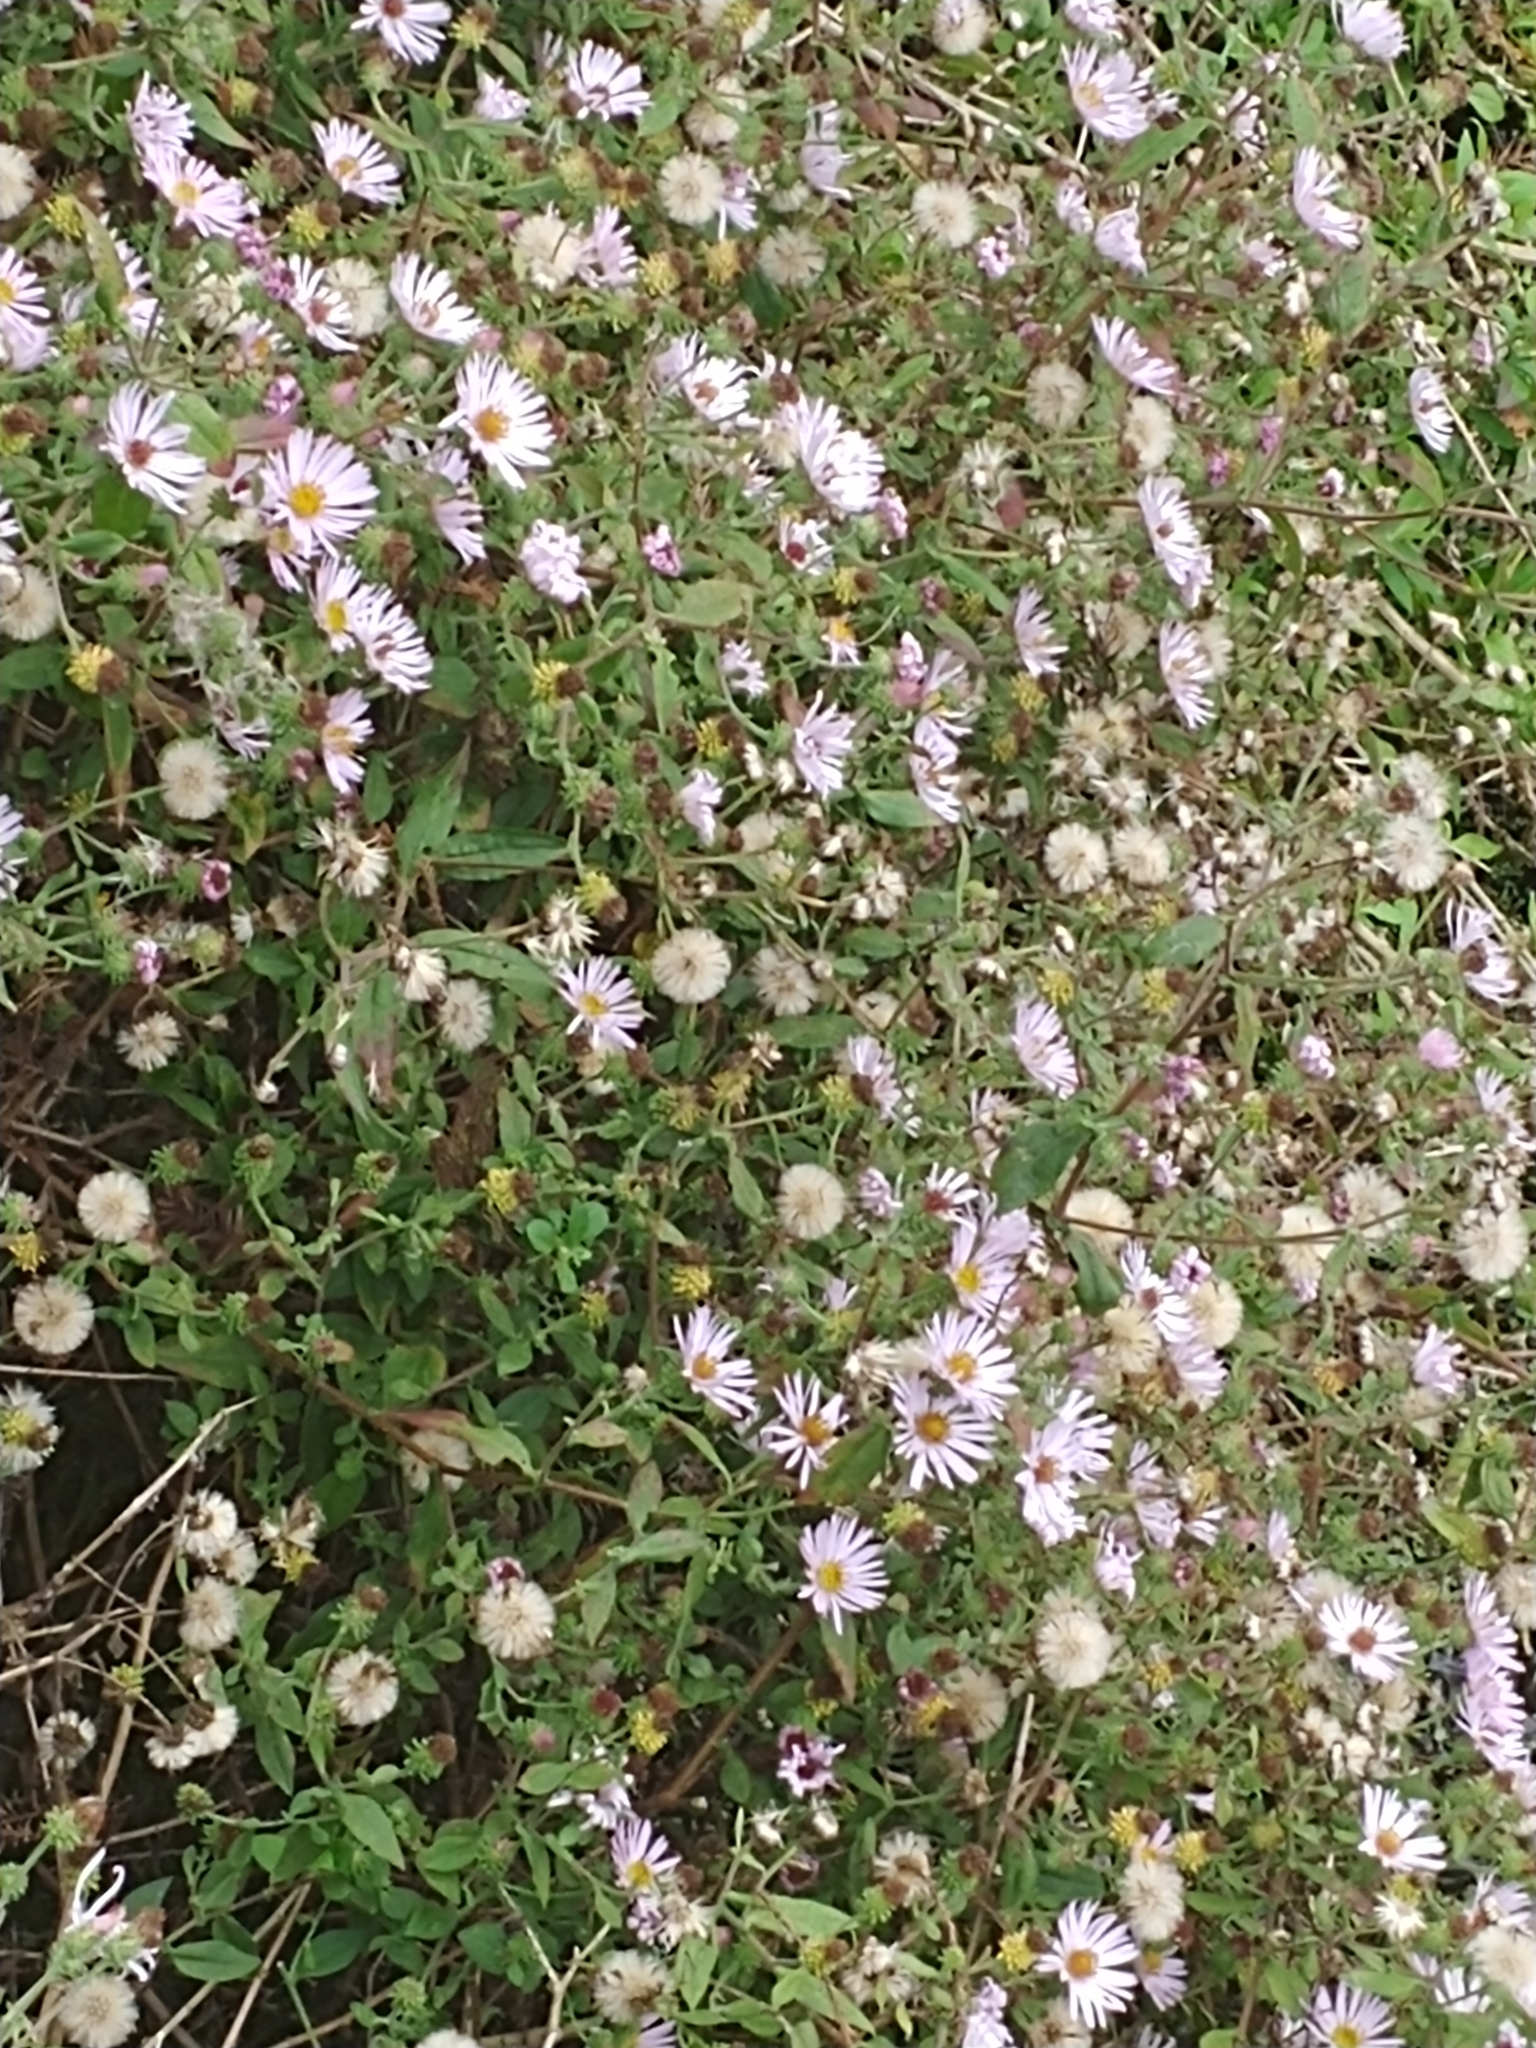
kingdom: Plantae
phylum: Tracheophyta
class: Magnoliopsida
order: Asterales
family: Asteraceae
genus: Ampelaster
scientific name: Ampelaster carolinianus
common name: Climbing aster
